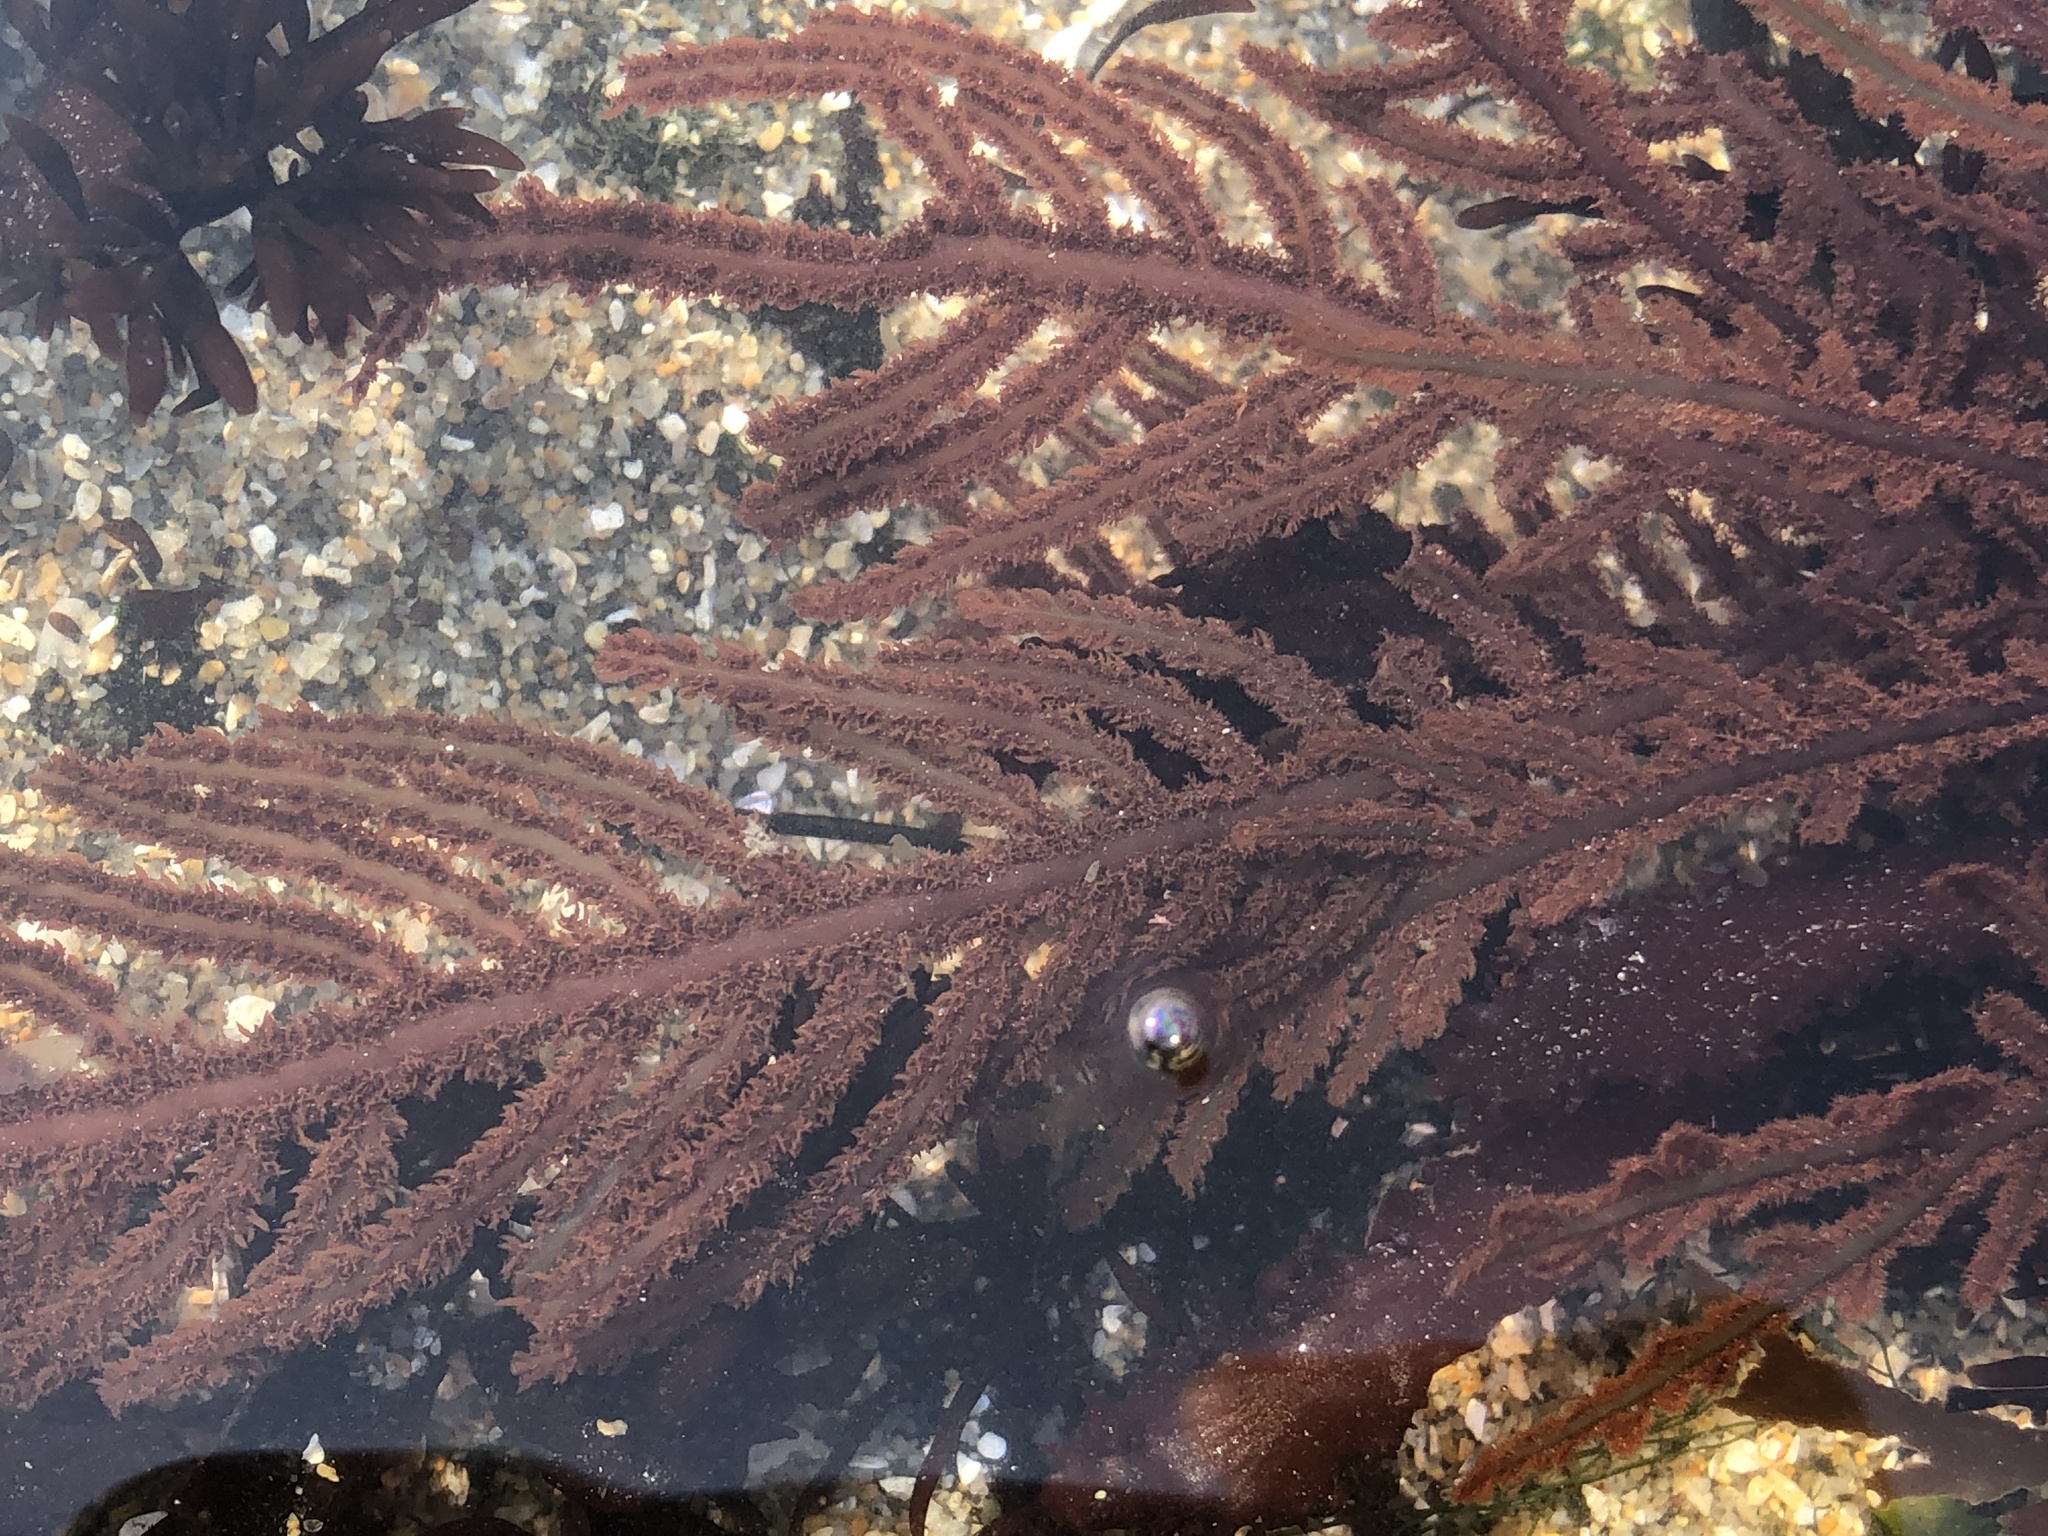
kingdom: Plantae
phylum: Rhodophyta
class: Florideophyceae
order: Ceramiales
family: Wrangeliaceae
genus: Neoptilota
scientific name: Neoptilota densa
